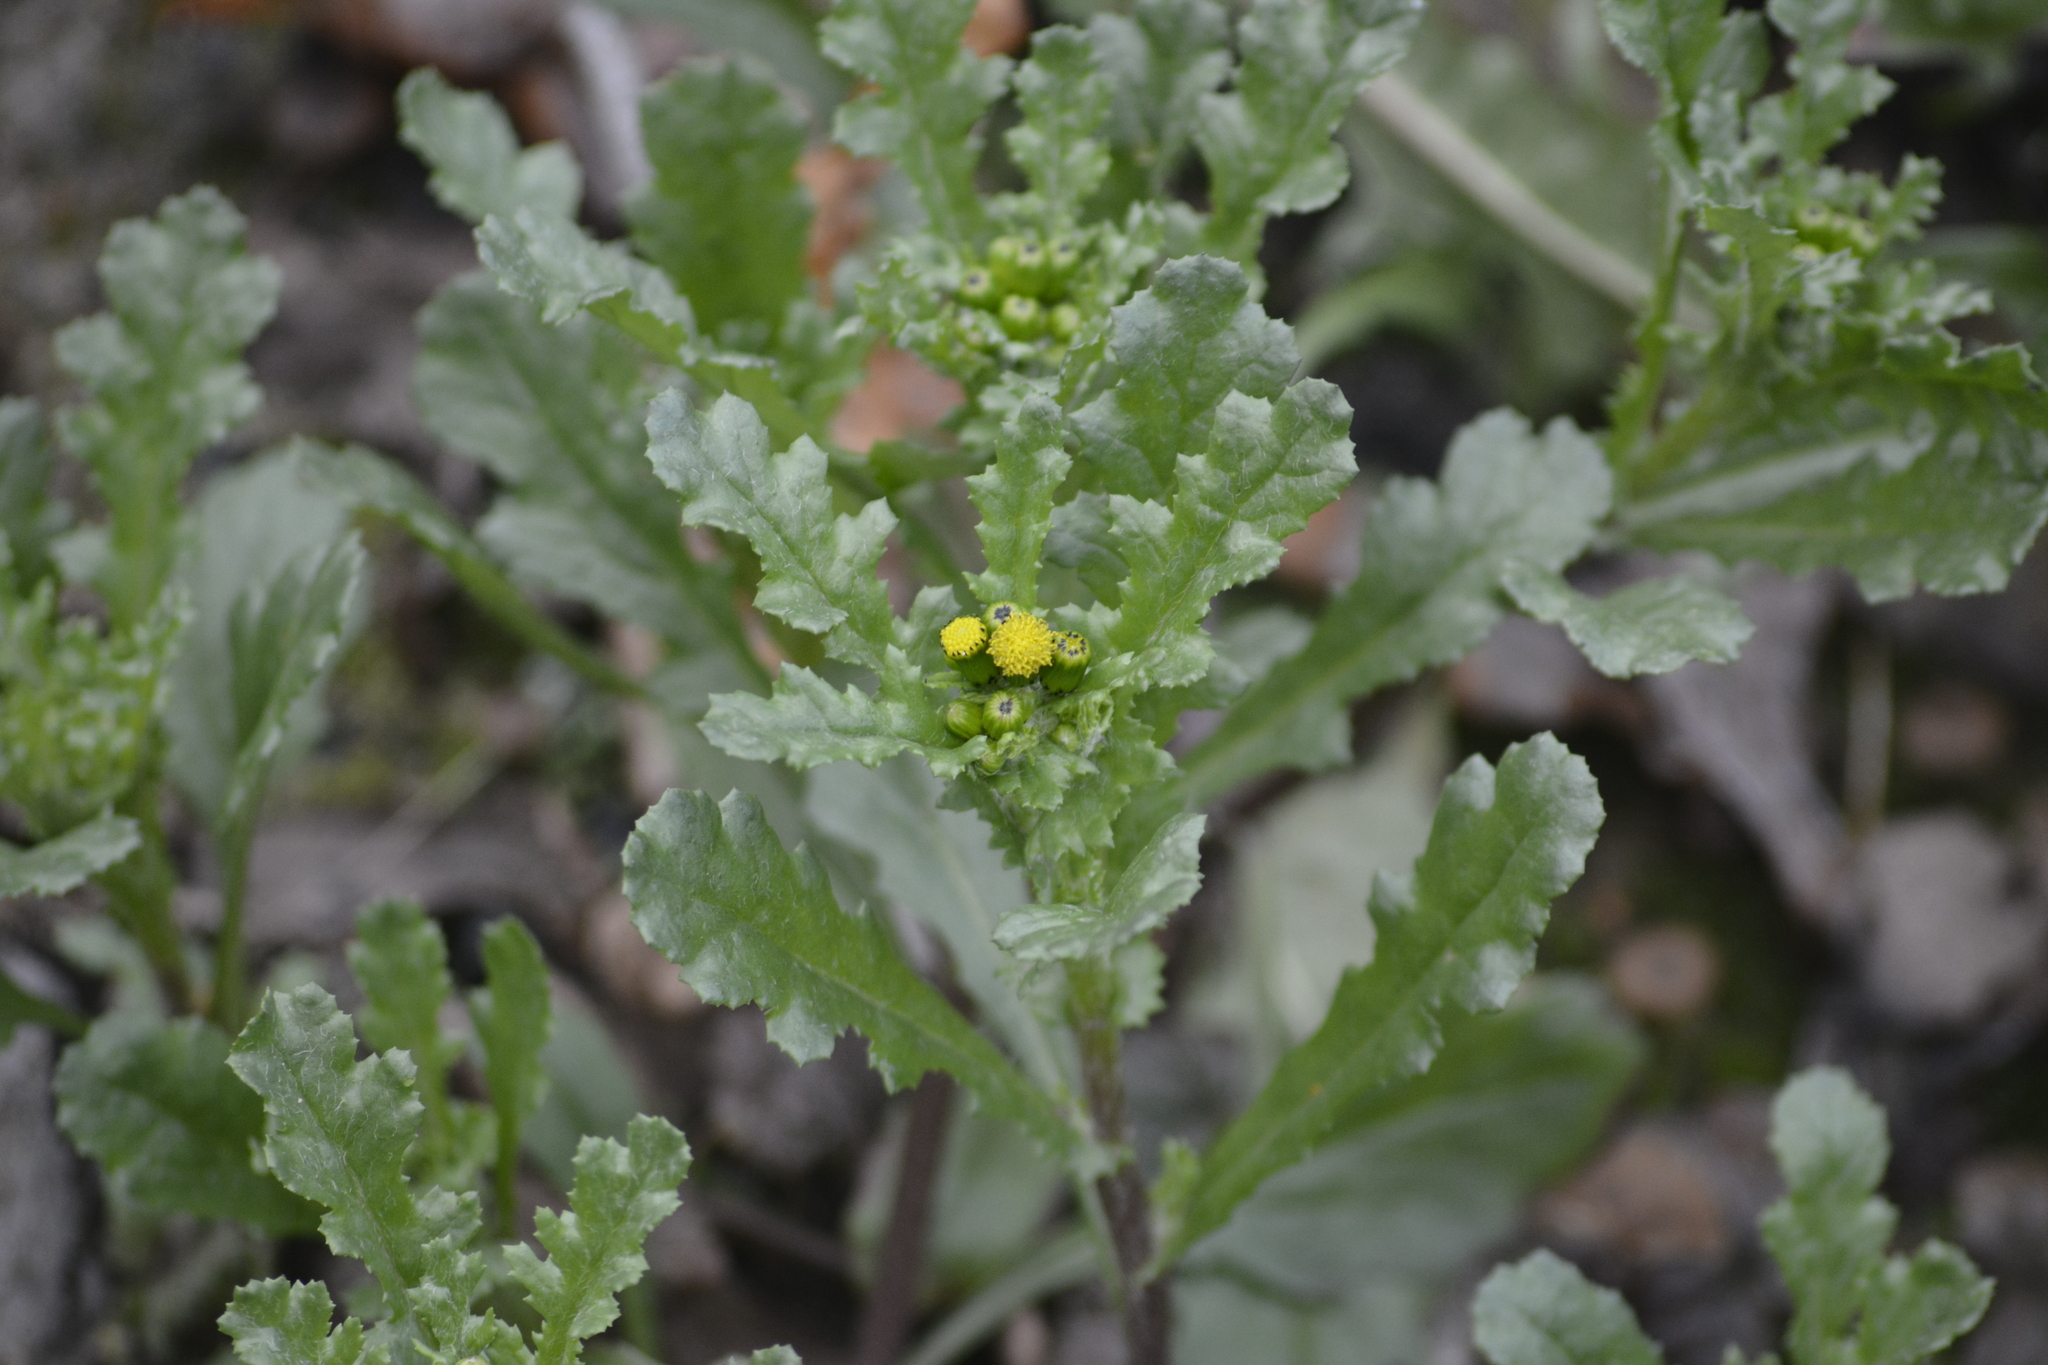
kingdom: Plantae
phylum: Tracheophyta
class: Magnoliopsida
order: Asterales
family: Asteraceae
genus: Senecio
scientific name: Senecio vulgaris
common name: Old-man-in-the-spring
